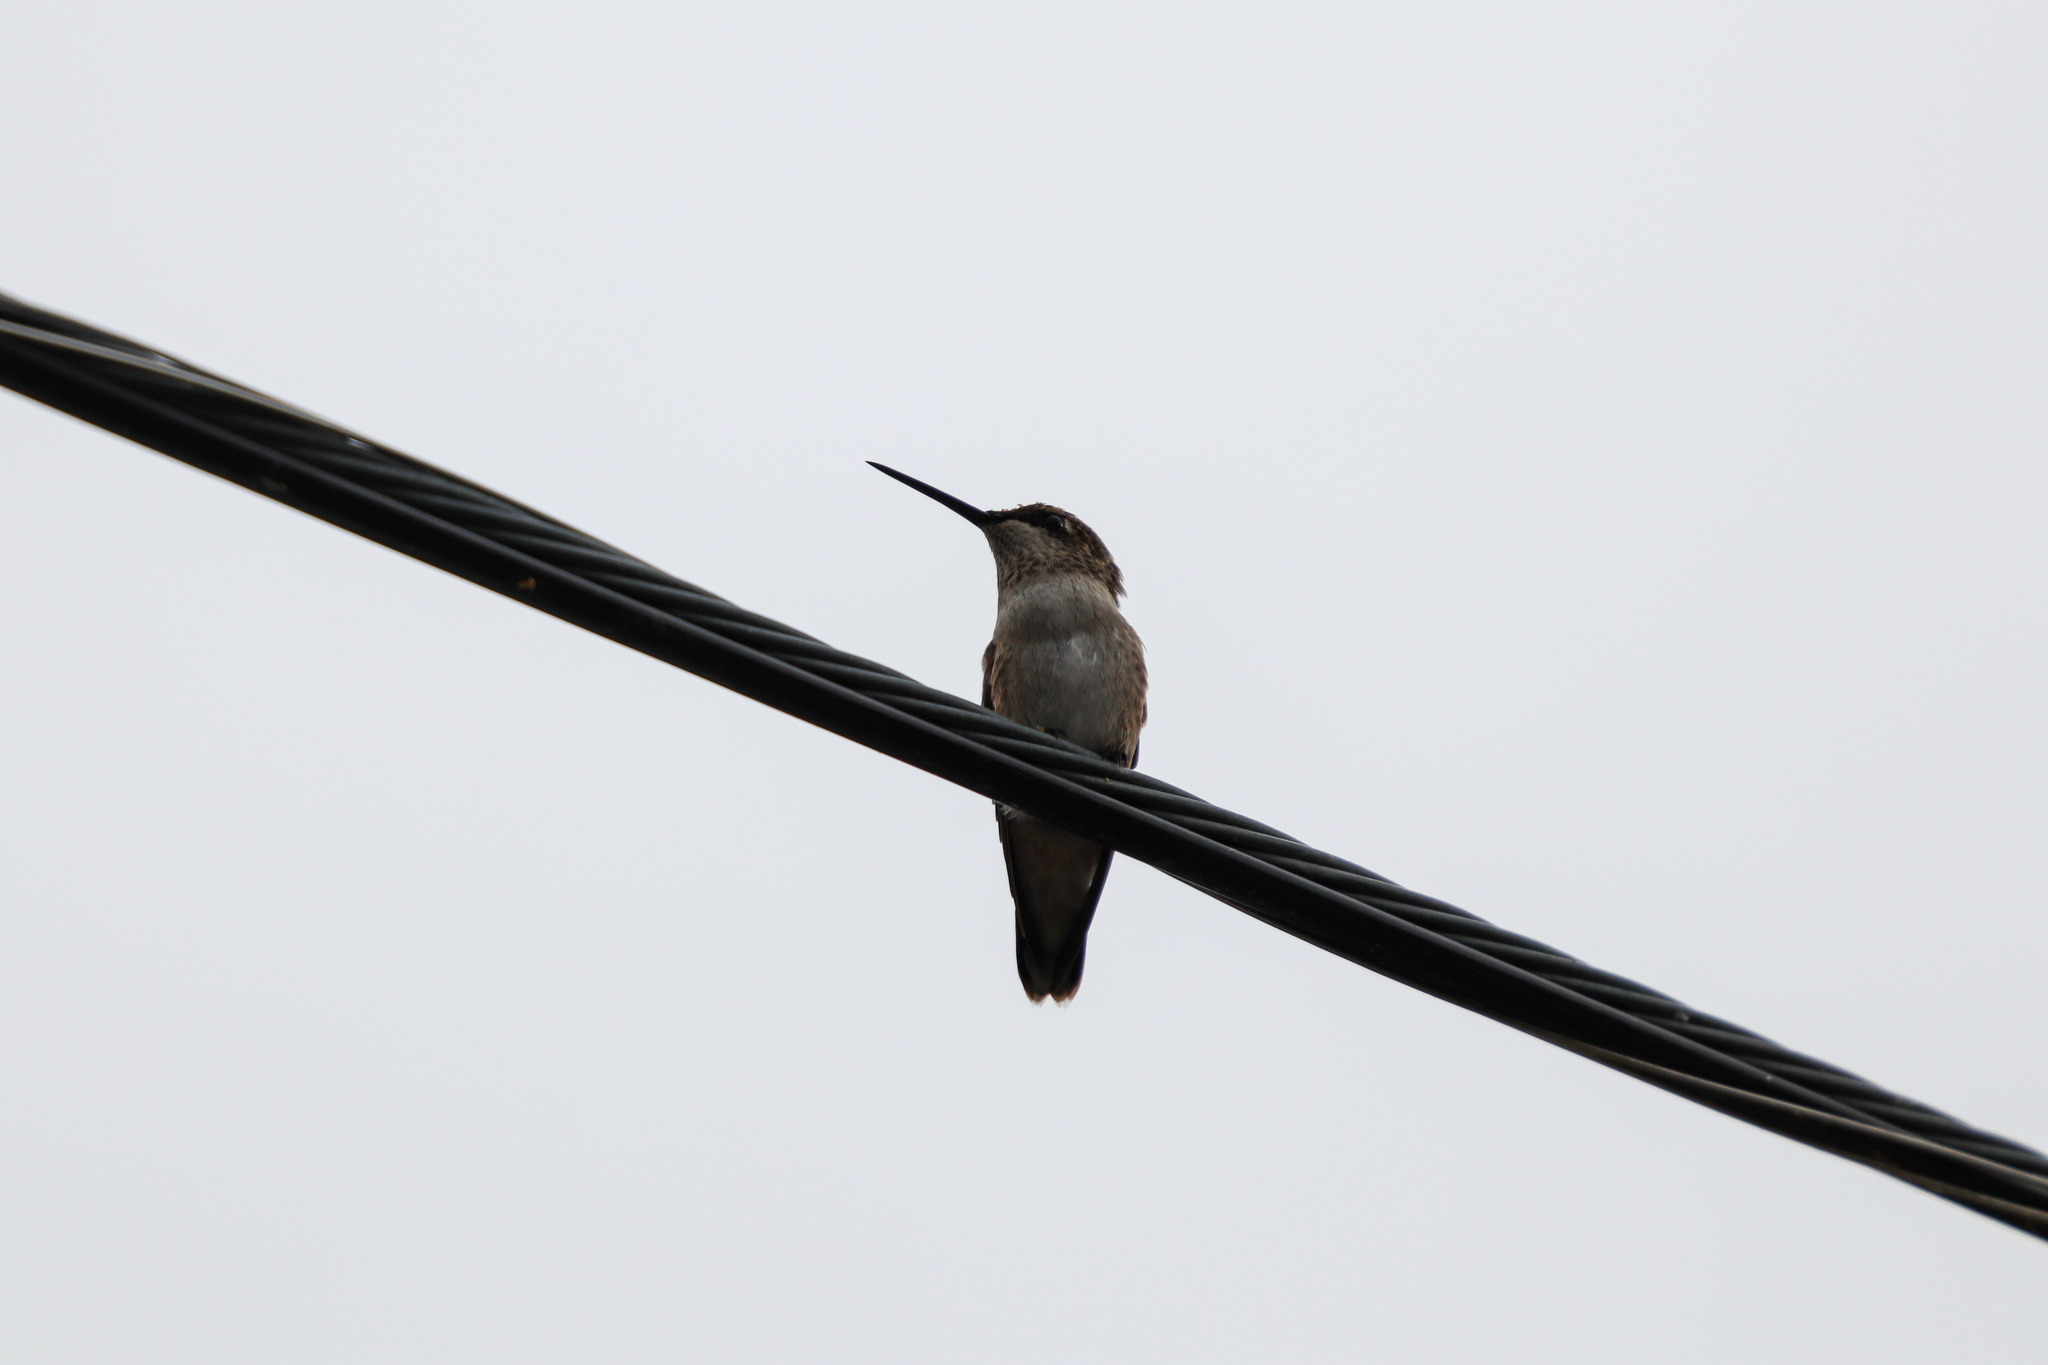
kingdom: Animalia
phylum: Chordata
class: Aves
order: Apodiformes
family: Trochilidae
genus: Archilochus
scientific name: Archilochus alexandri
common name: Black-chinned hummingbird
